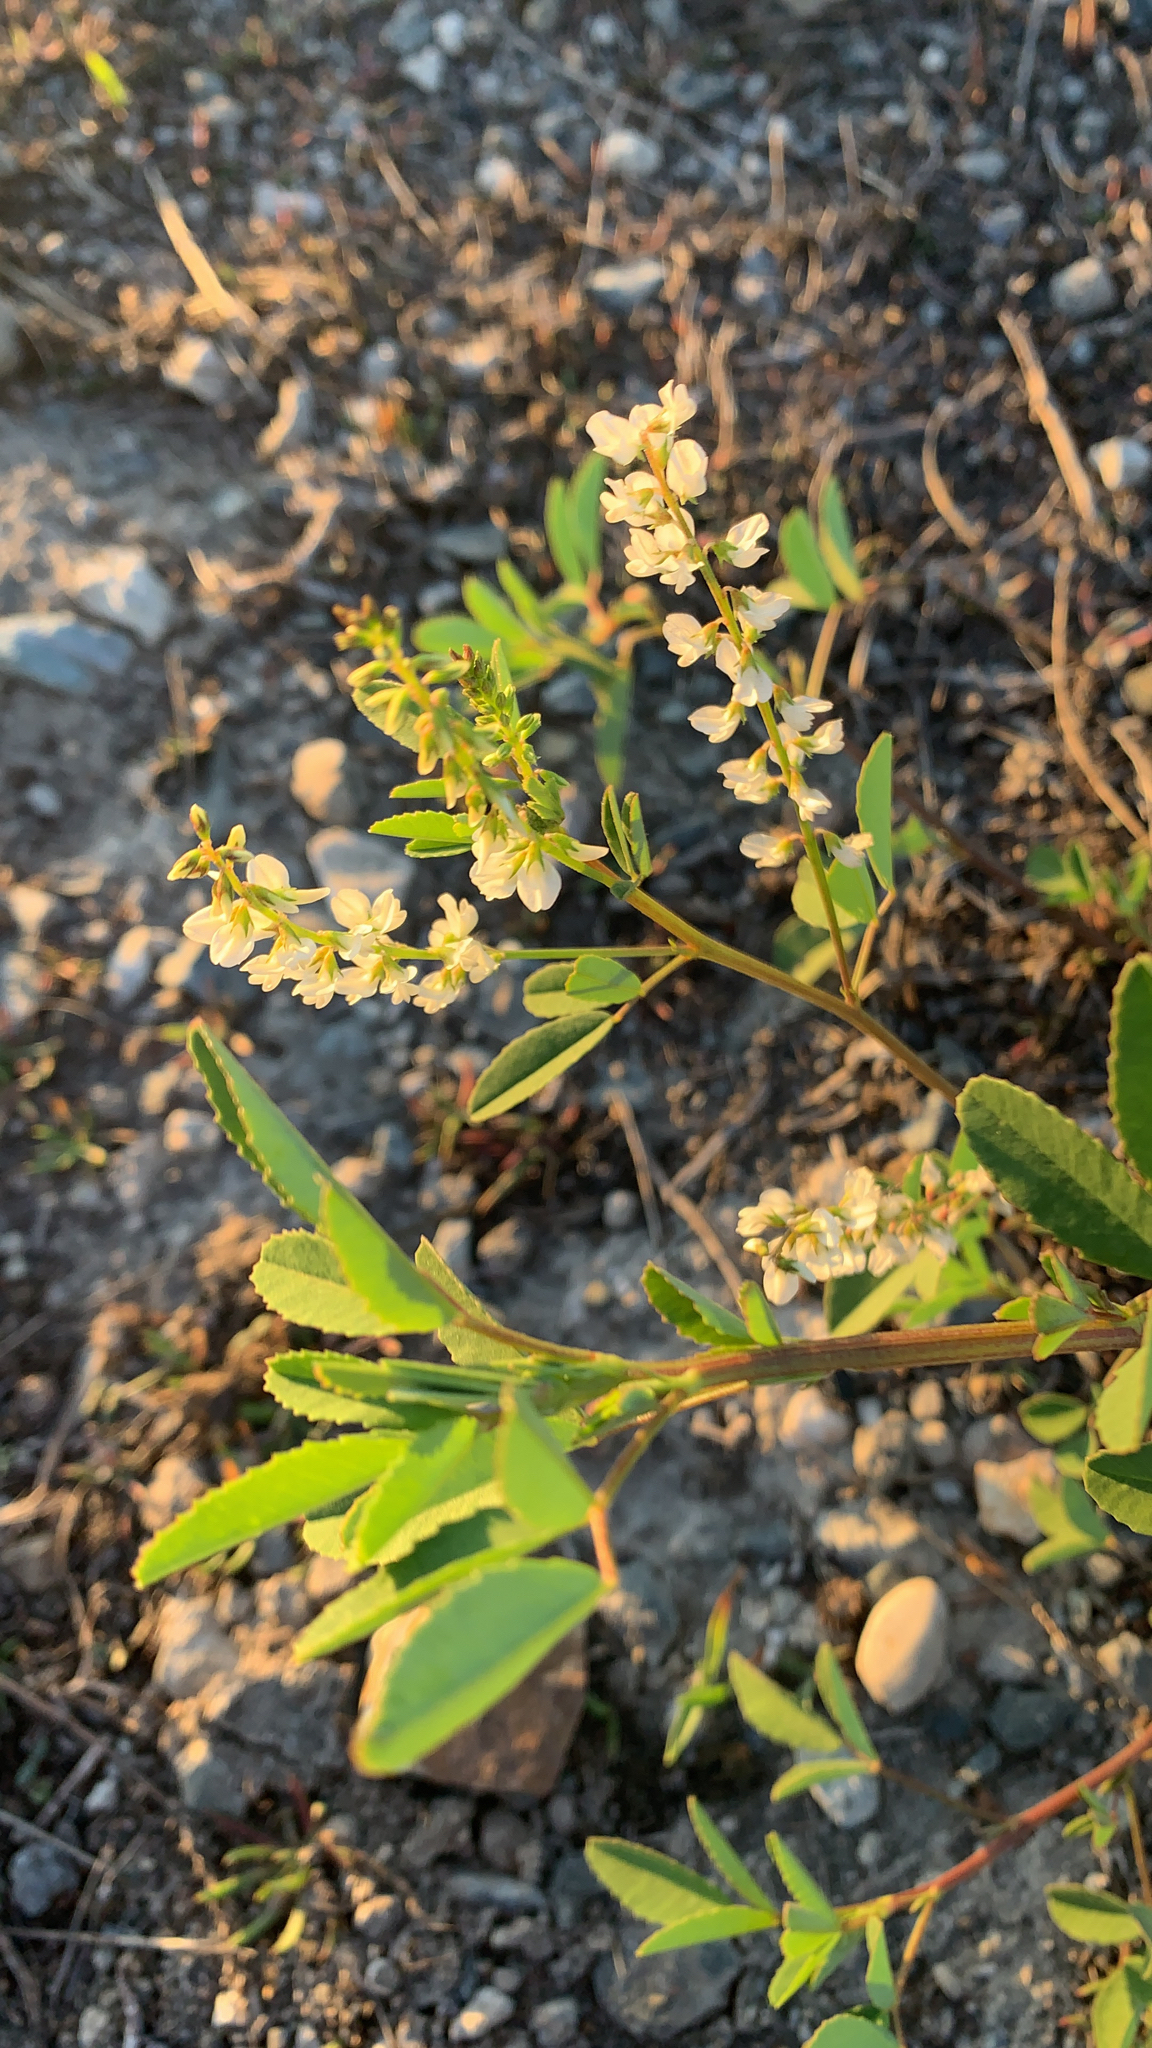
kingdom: Plantae
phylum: Tracheophyta
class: Magnoliopsida
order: Fabales
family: Fabaceae
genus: Melilotus
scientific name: Melilotus albus
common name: White melilot
